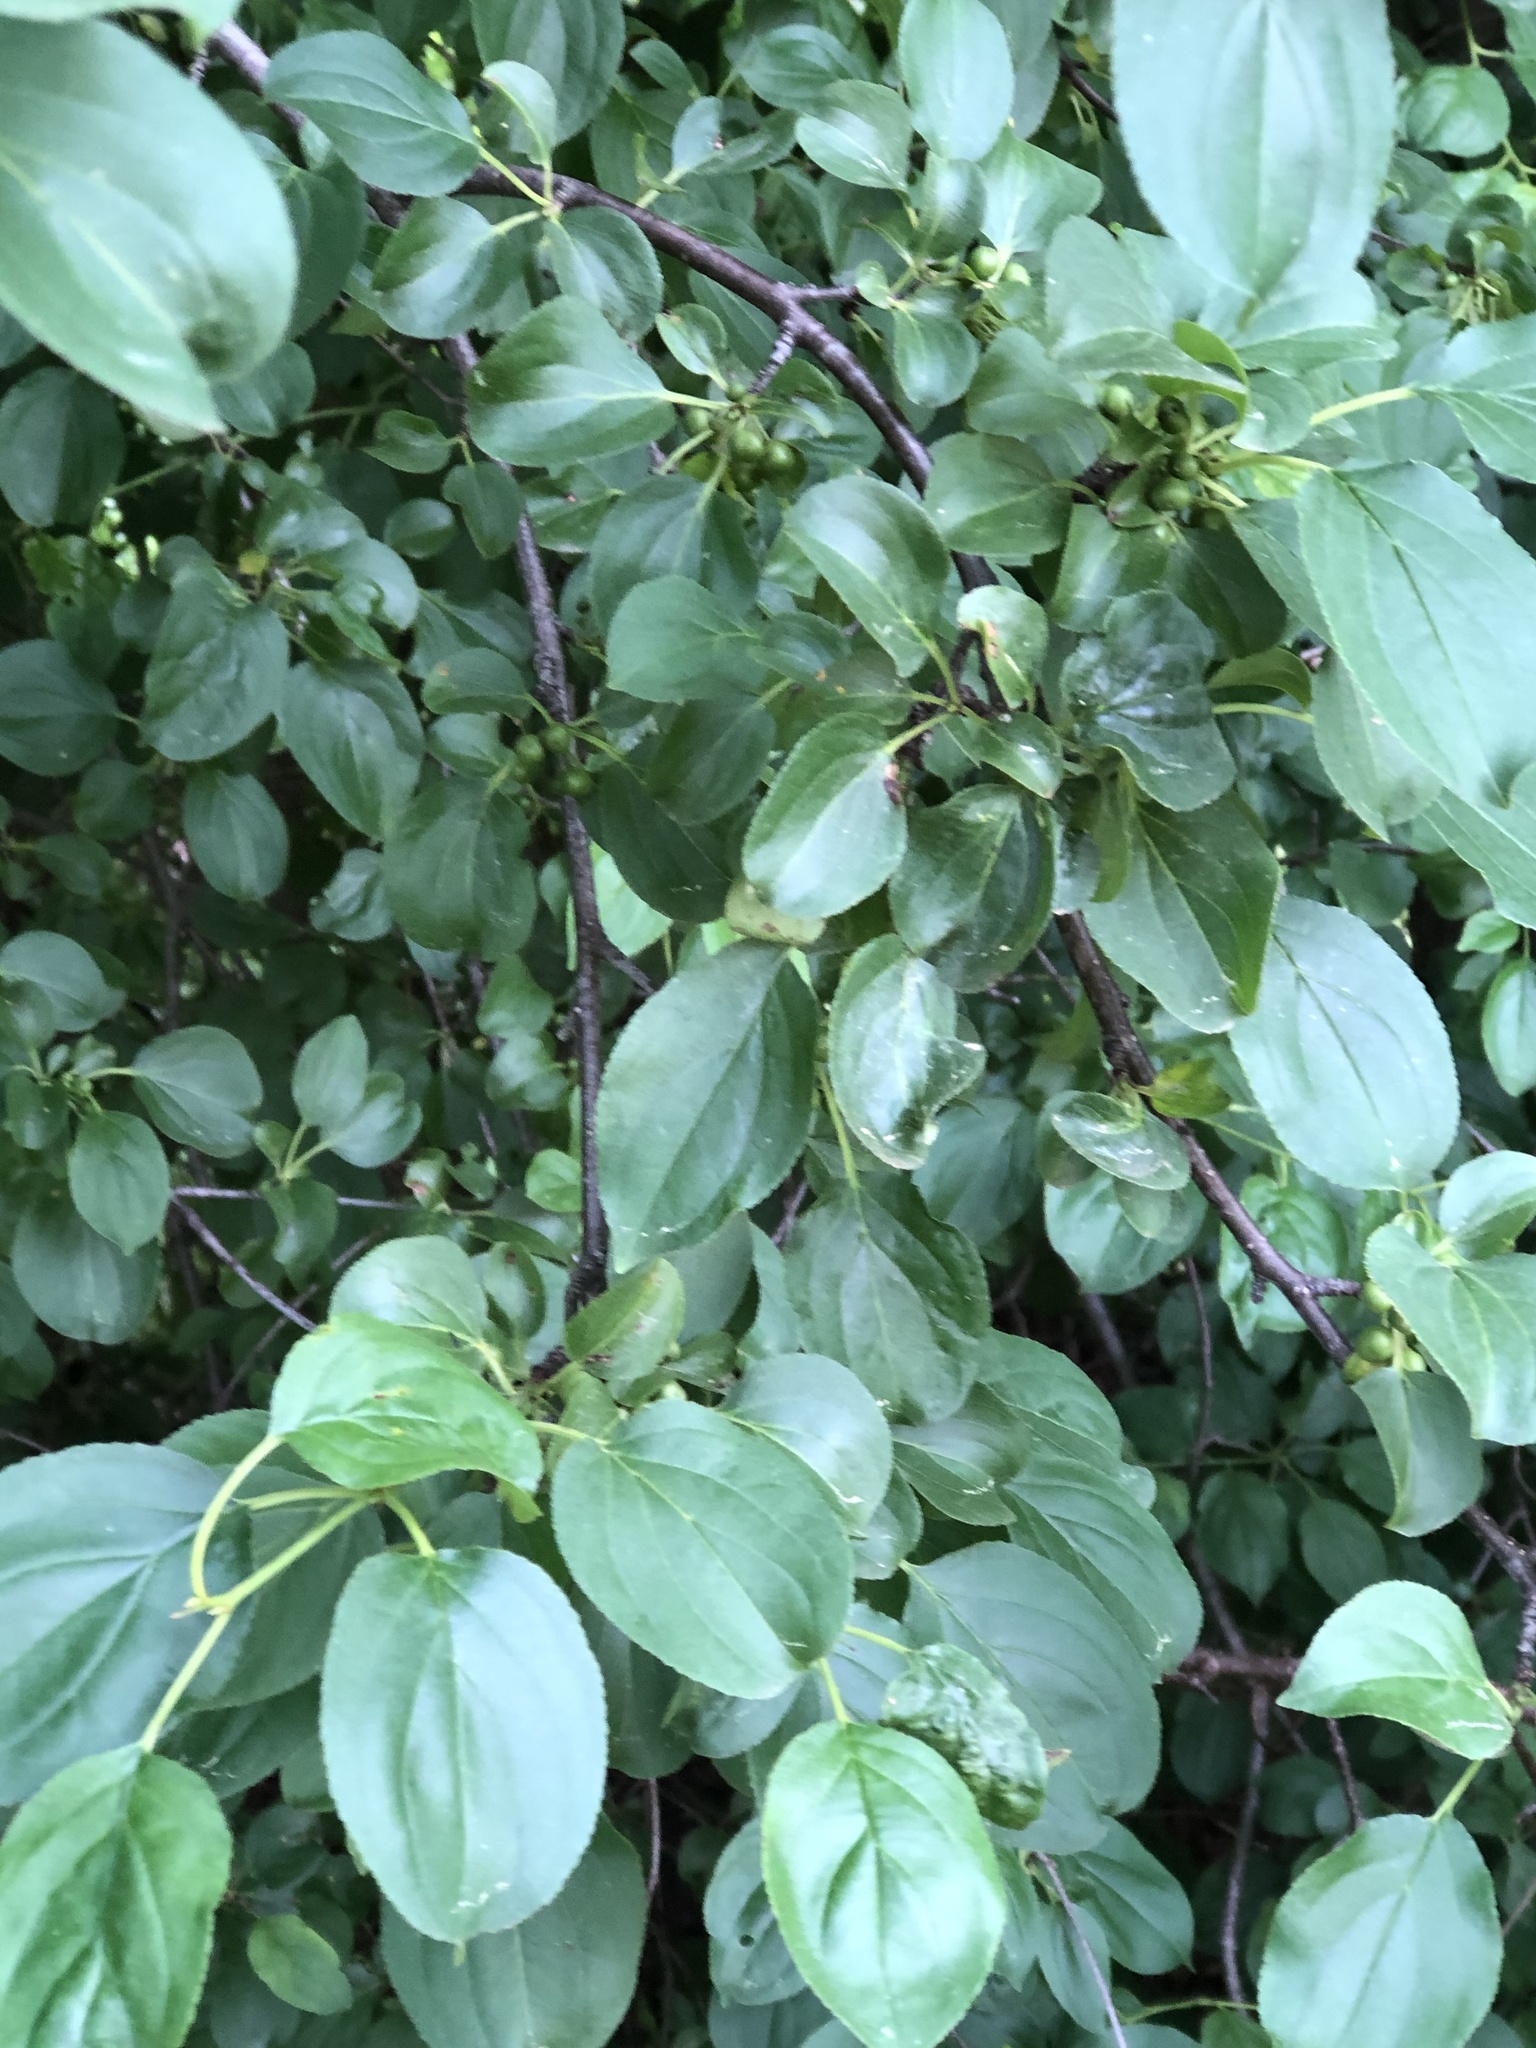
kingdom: Plantae
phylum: Tracheophyta
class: Magnoliopsida
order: Rosales
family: Rhamnaceae
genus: Rhamnus
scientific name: Rhamnus cathartica
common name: Common buckthorn
